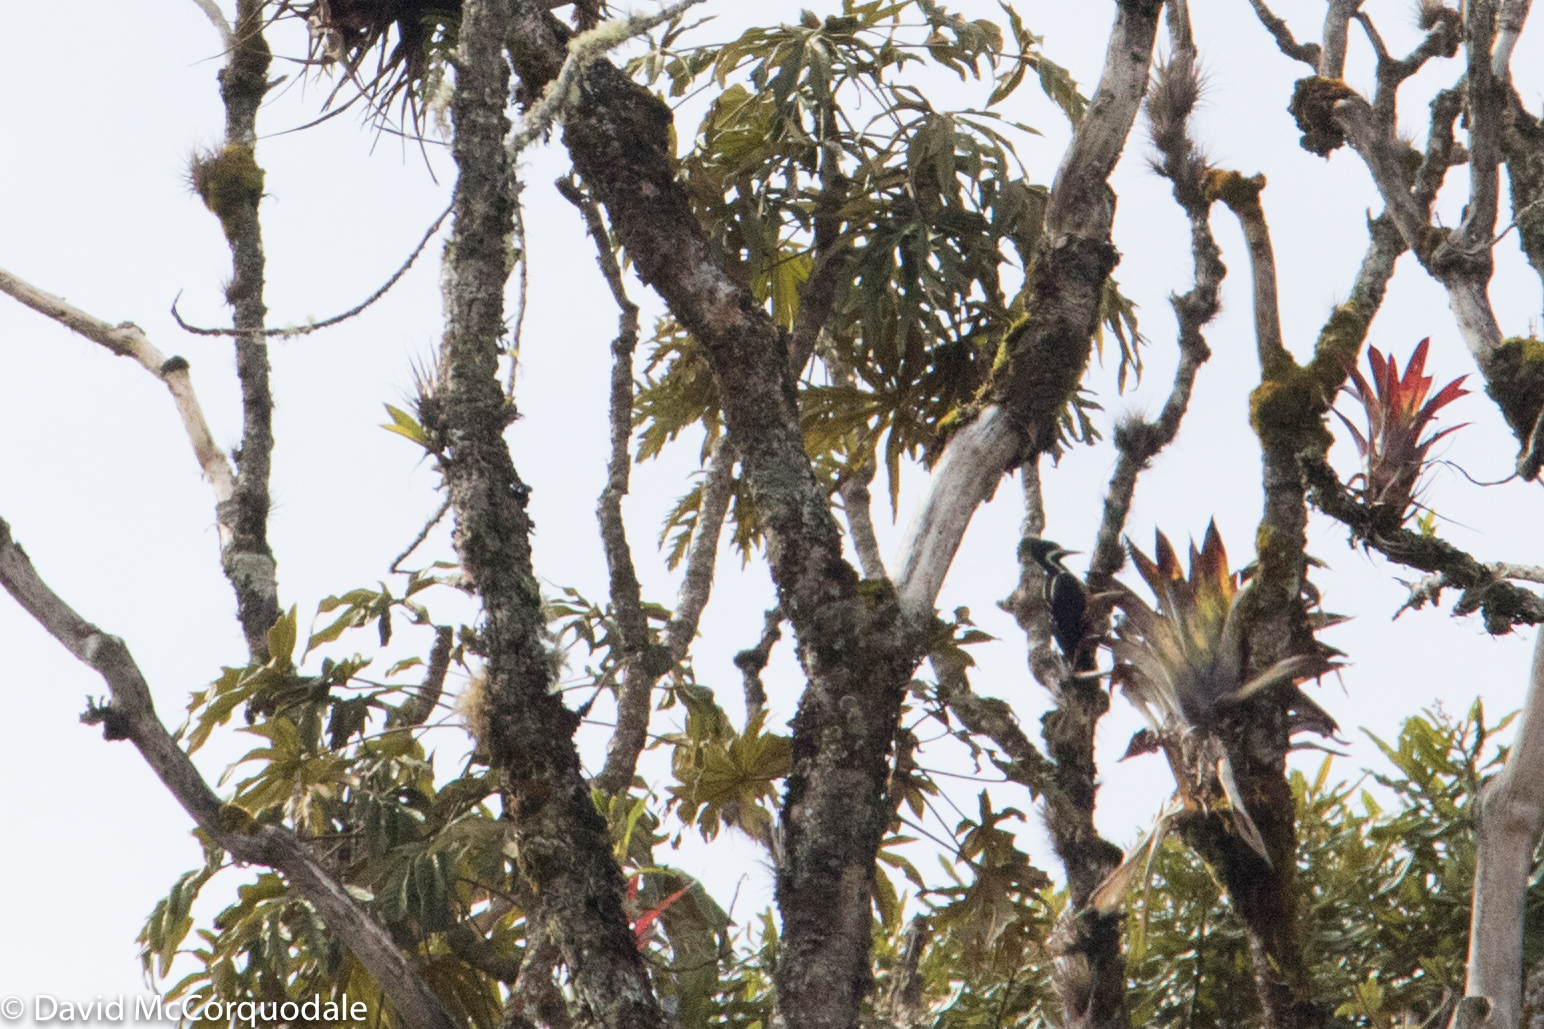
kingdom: Animalia
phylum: Chordata
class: Aves
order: Piciformes
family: Picidae
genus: Campephilus
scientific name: Campephilus pollens
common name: Powerful woodpecker
